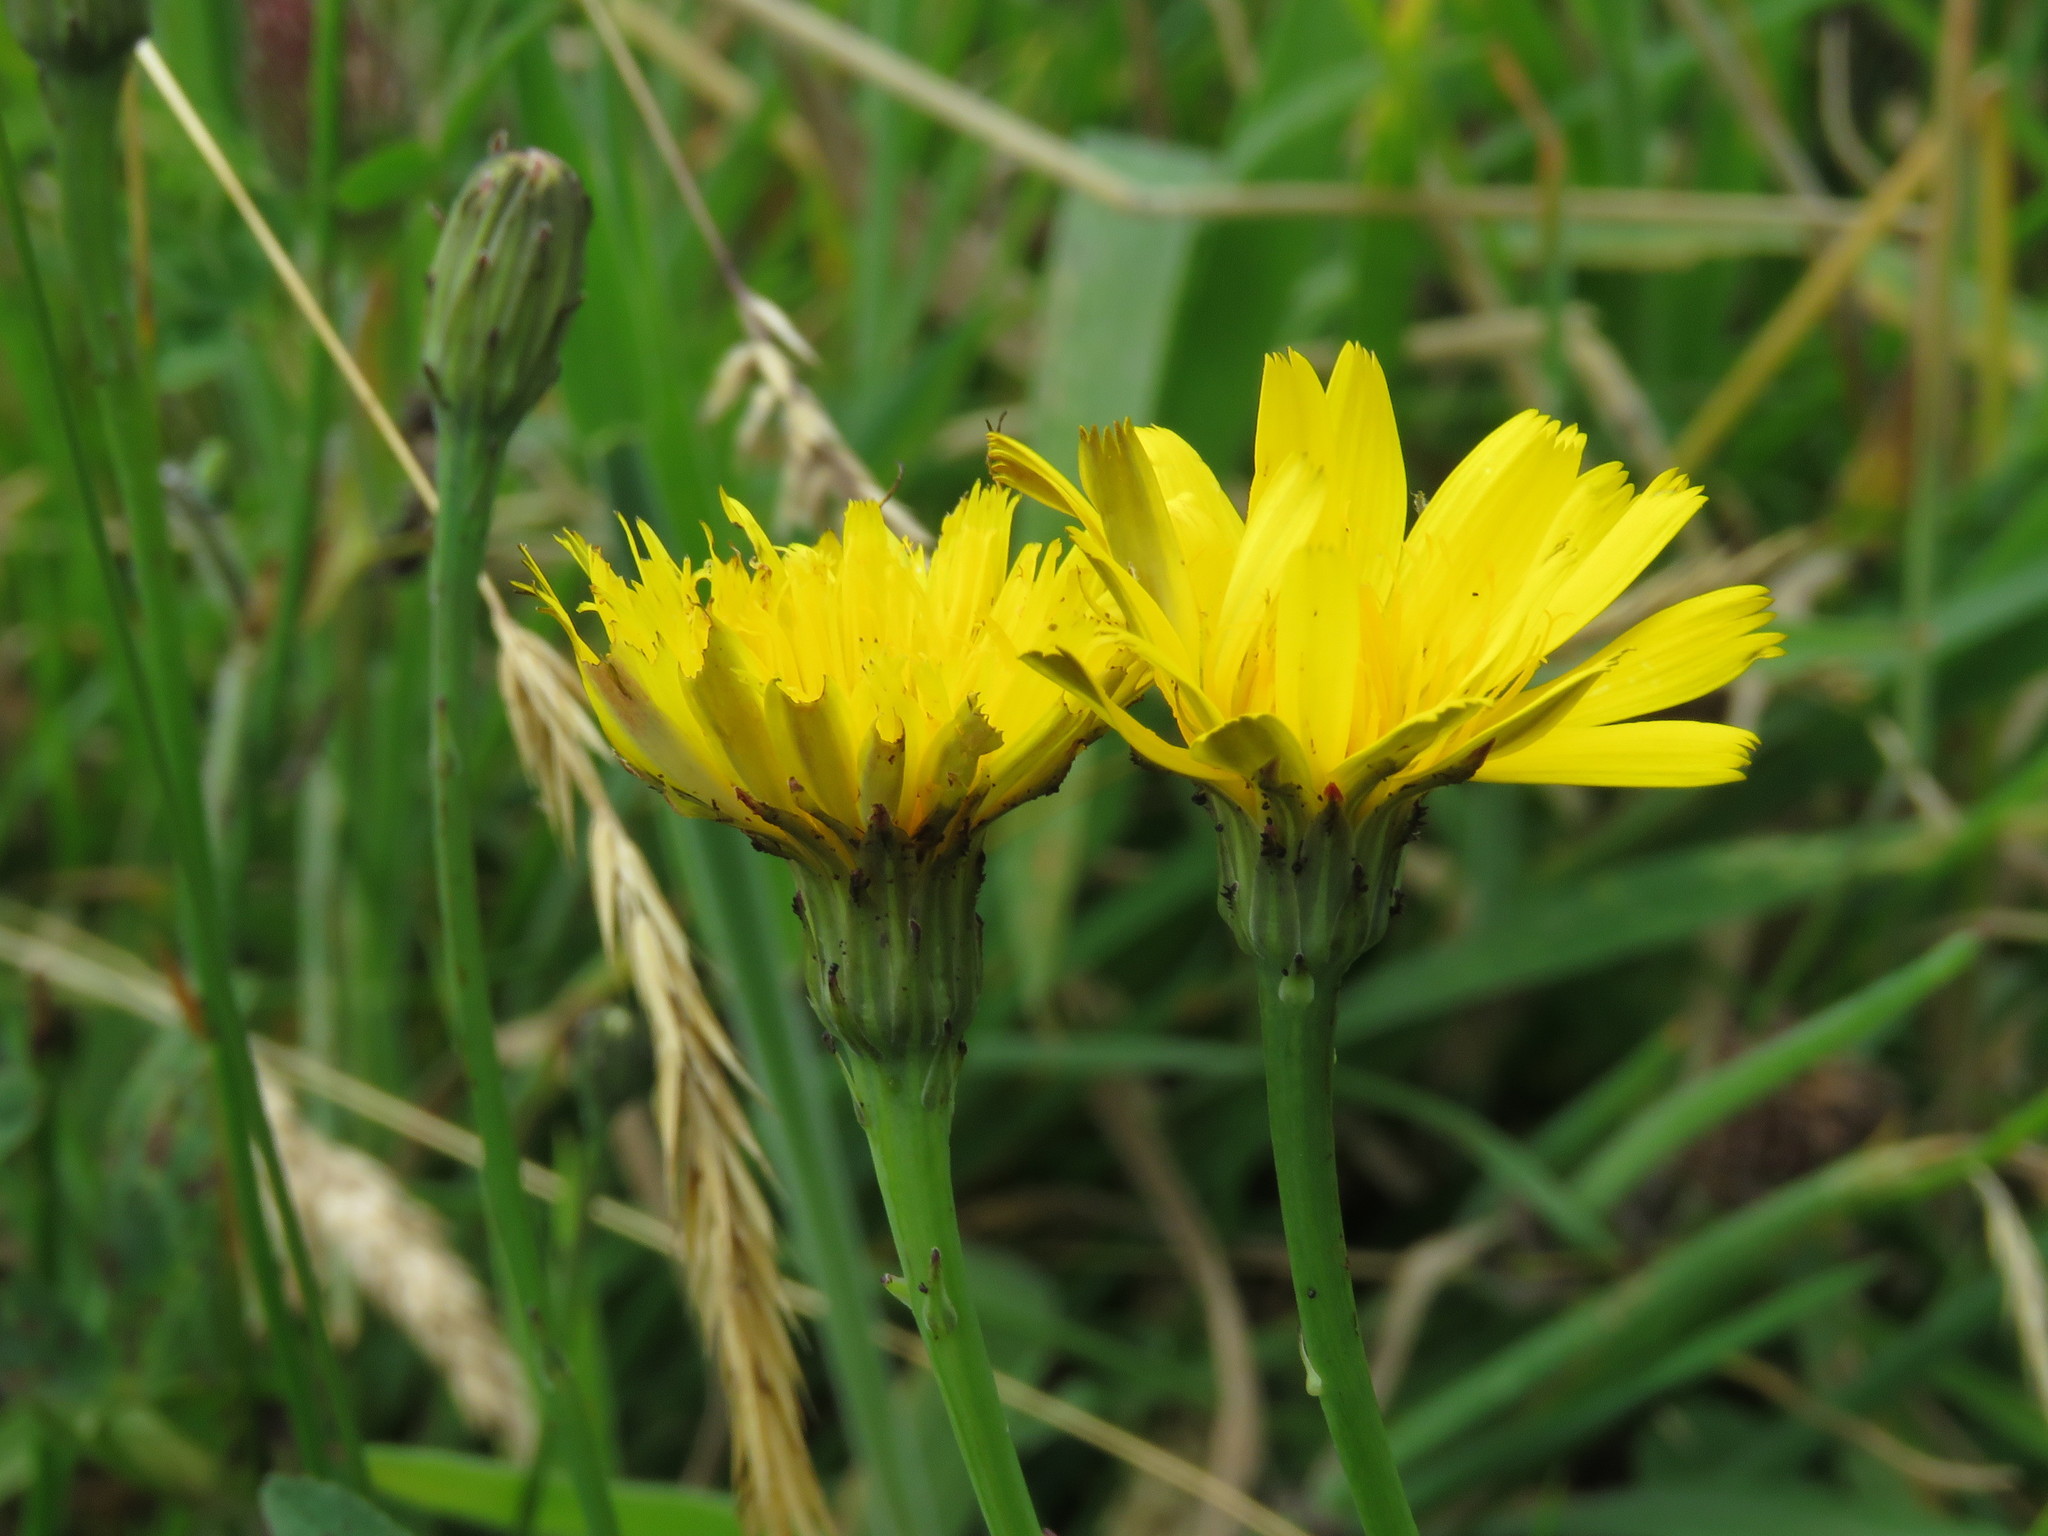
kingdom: Plantae
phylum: Tracheophyta
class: Magnoliopsida
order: Asterales
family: Asteraceae
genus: Hypochaeris
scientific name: Hypochaeris radicata
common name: Flatweed
